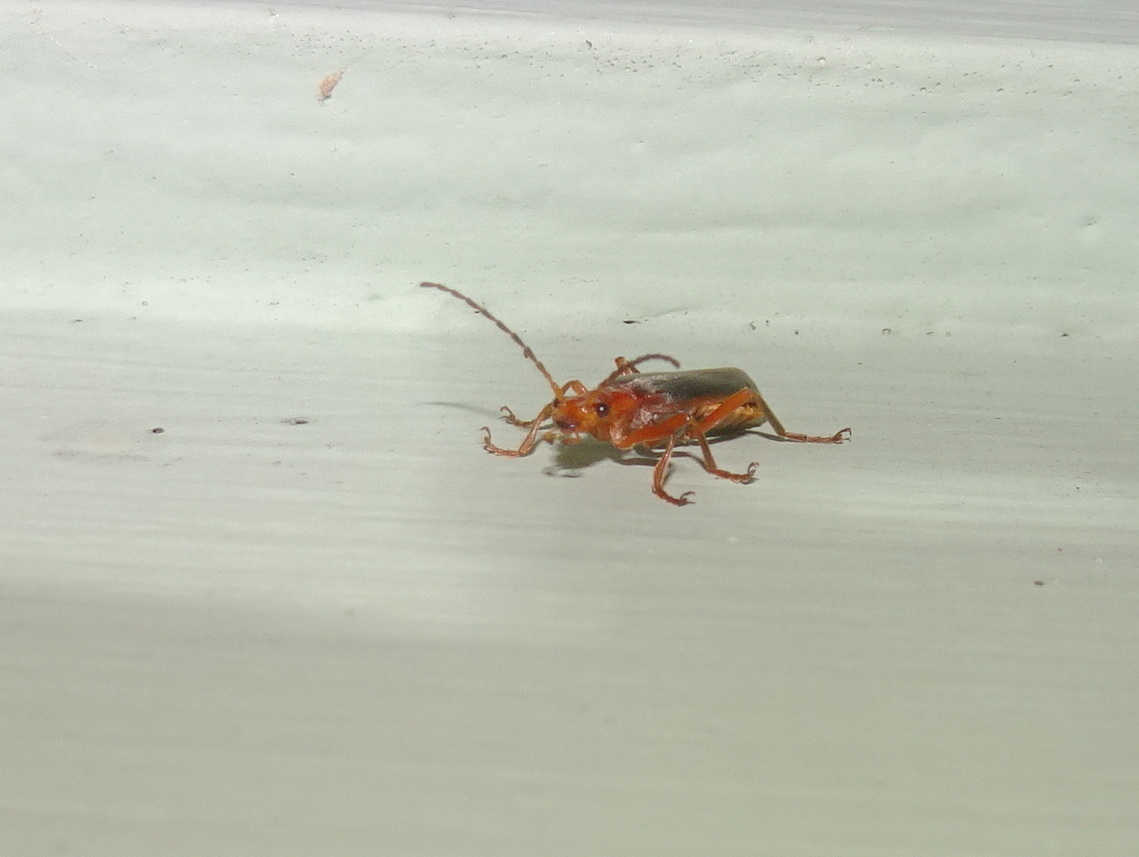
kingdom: Animalia
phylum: Arthropoda
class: Insecta
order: Coleoptera
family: Cantharidae
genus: Podabrus
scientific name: Podabrus tomentosus
